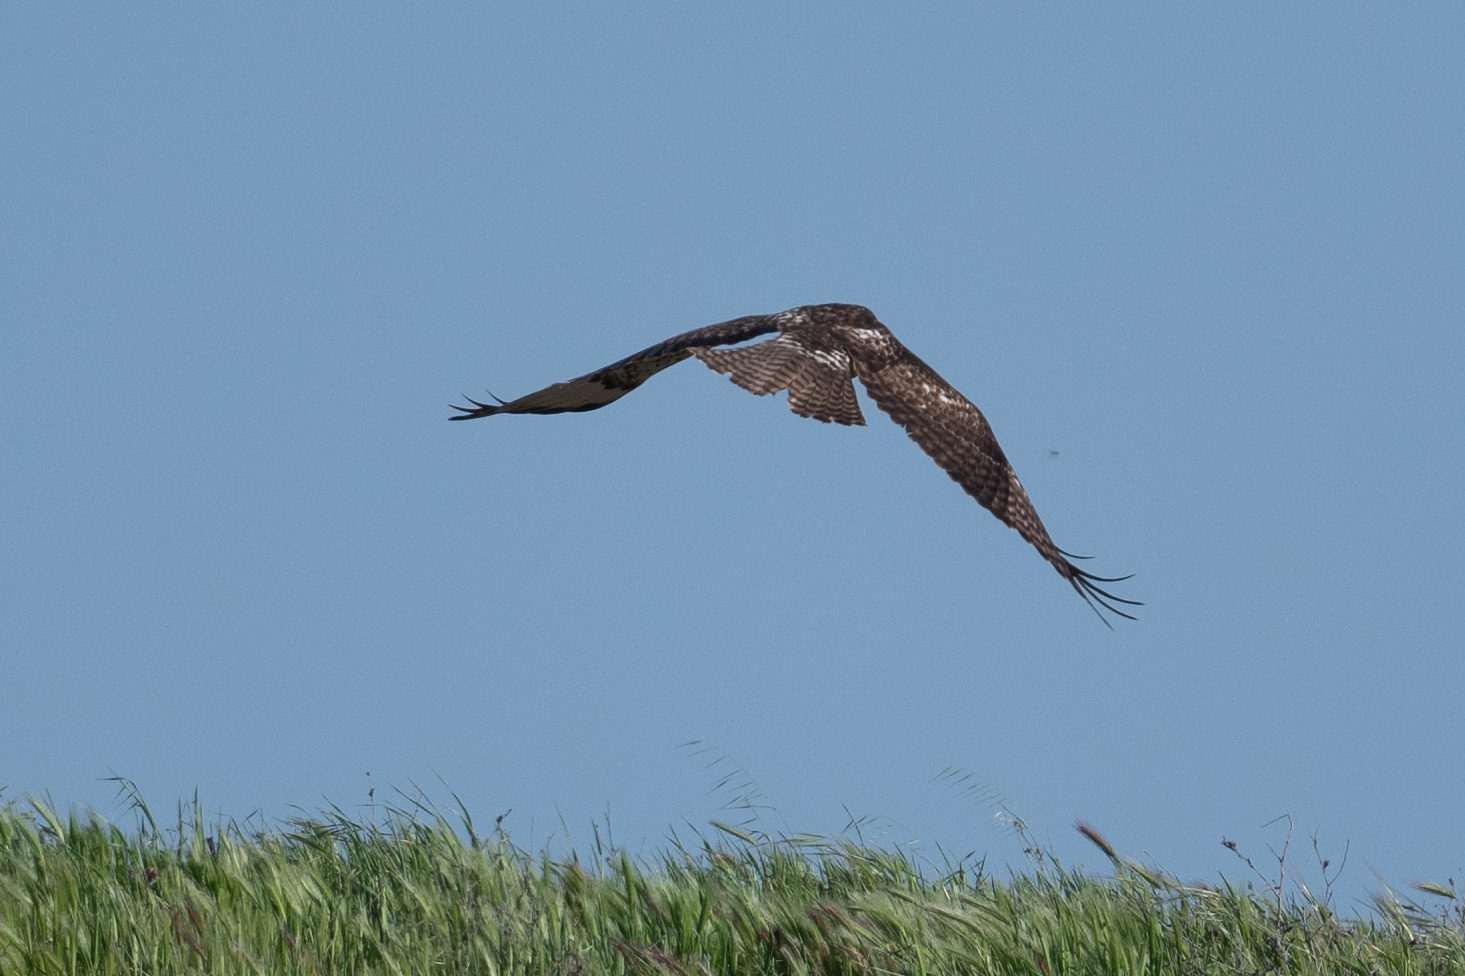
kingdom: Animalia
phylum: Chordata
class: Aves
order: Accipitriformes
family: Accipitridae
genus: Buteo
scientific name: Buteo jamaicensis
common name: Red-tailed hawk
